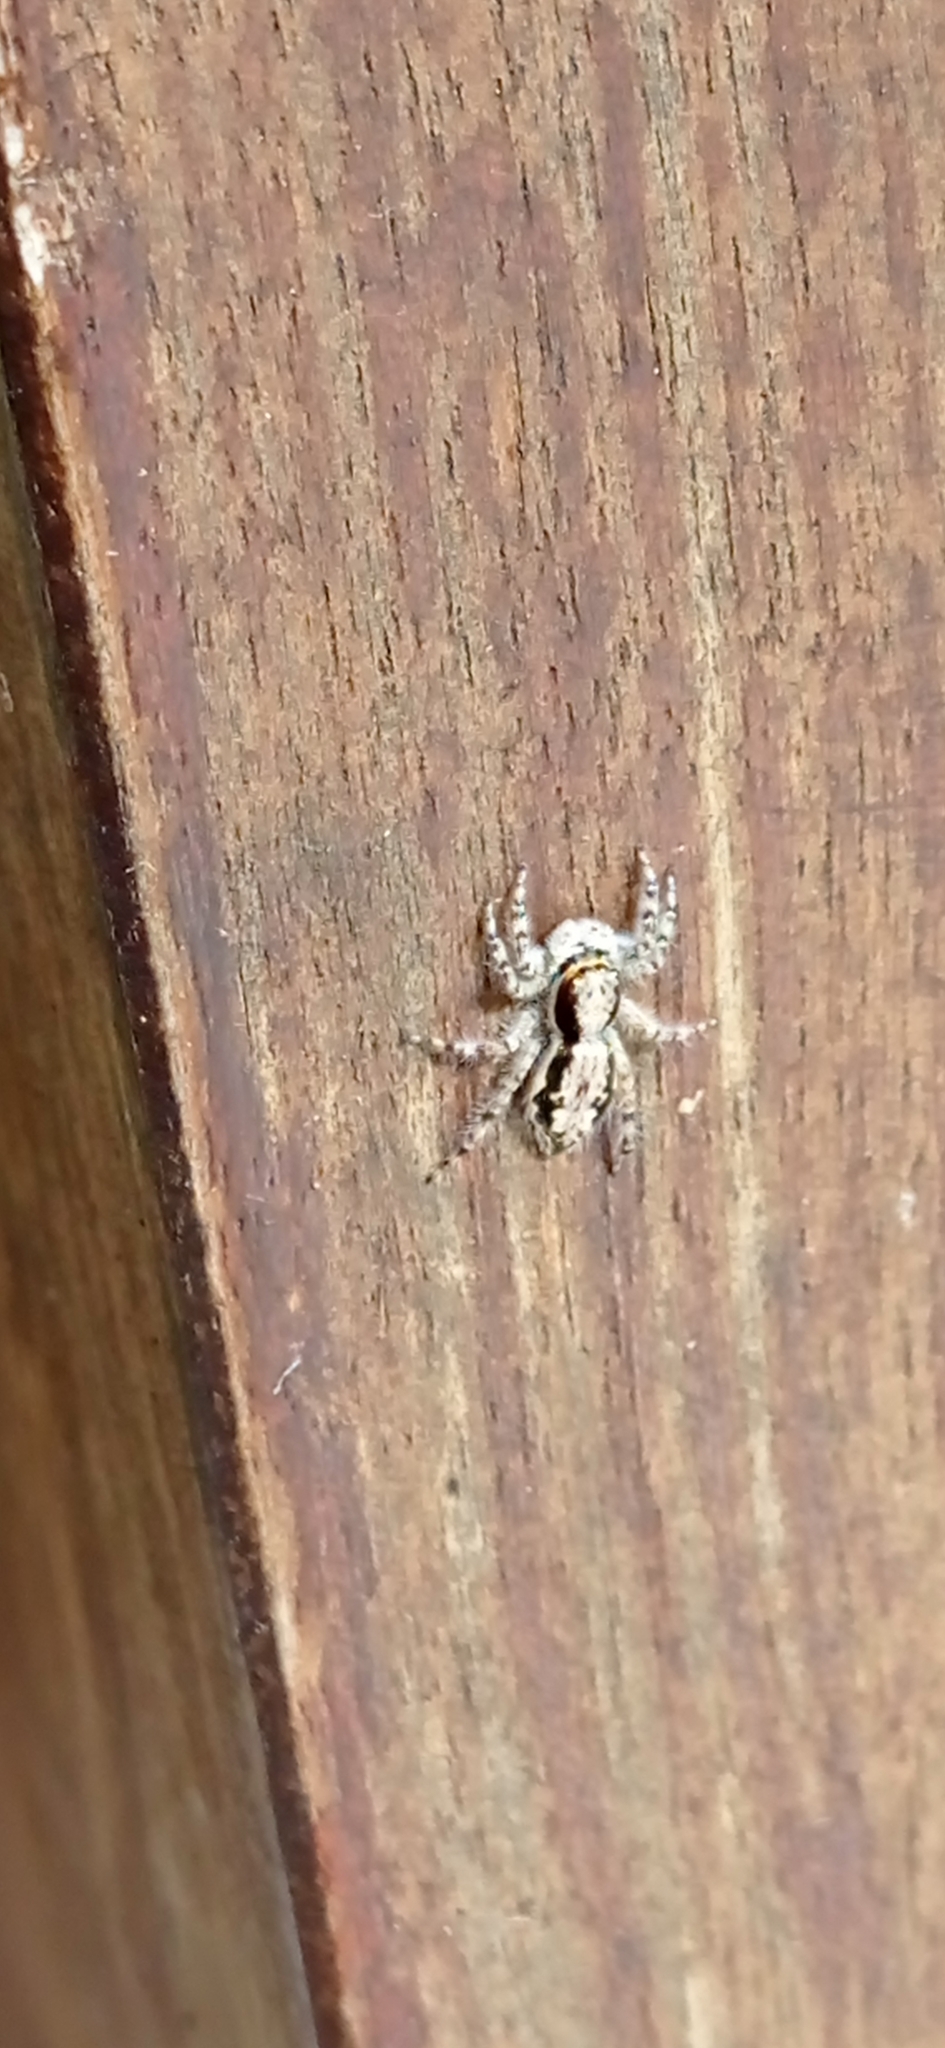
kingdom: Animalia
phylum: Arthropoda
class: Arachnida
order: Araneae
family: Salticidae
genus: Menemerus
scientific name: Menemerus bivittatus
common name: Gray wall jumper
